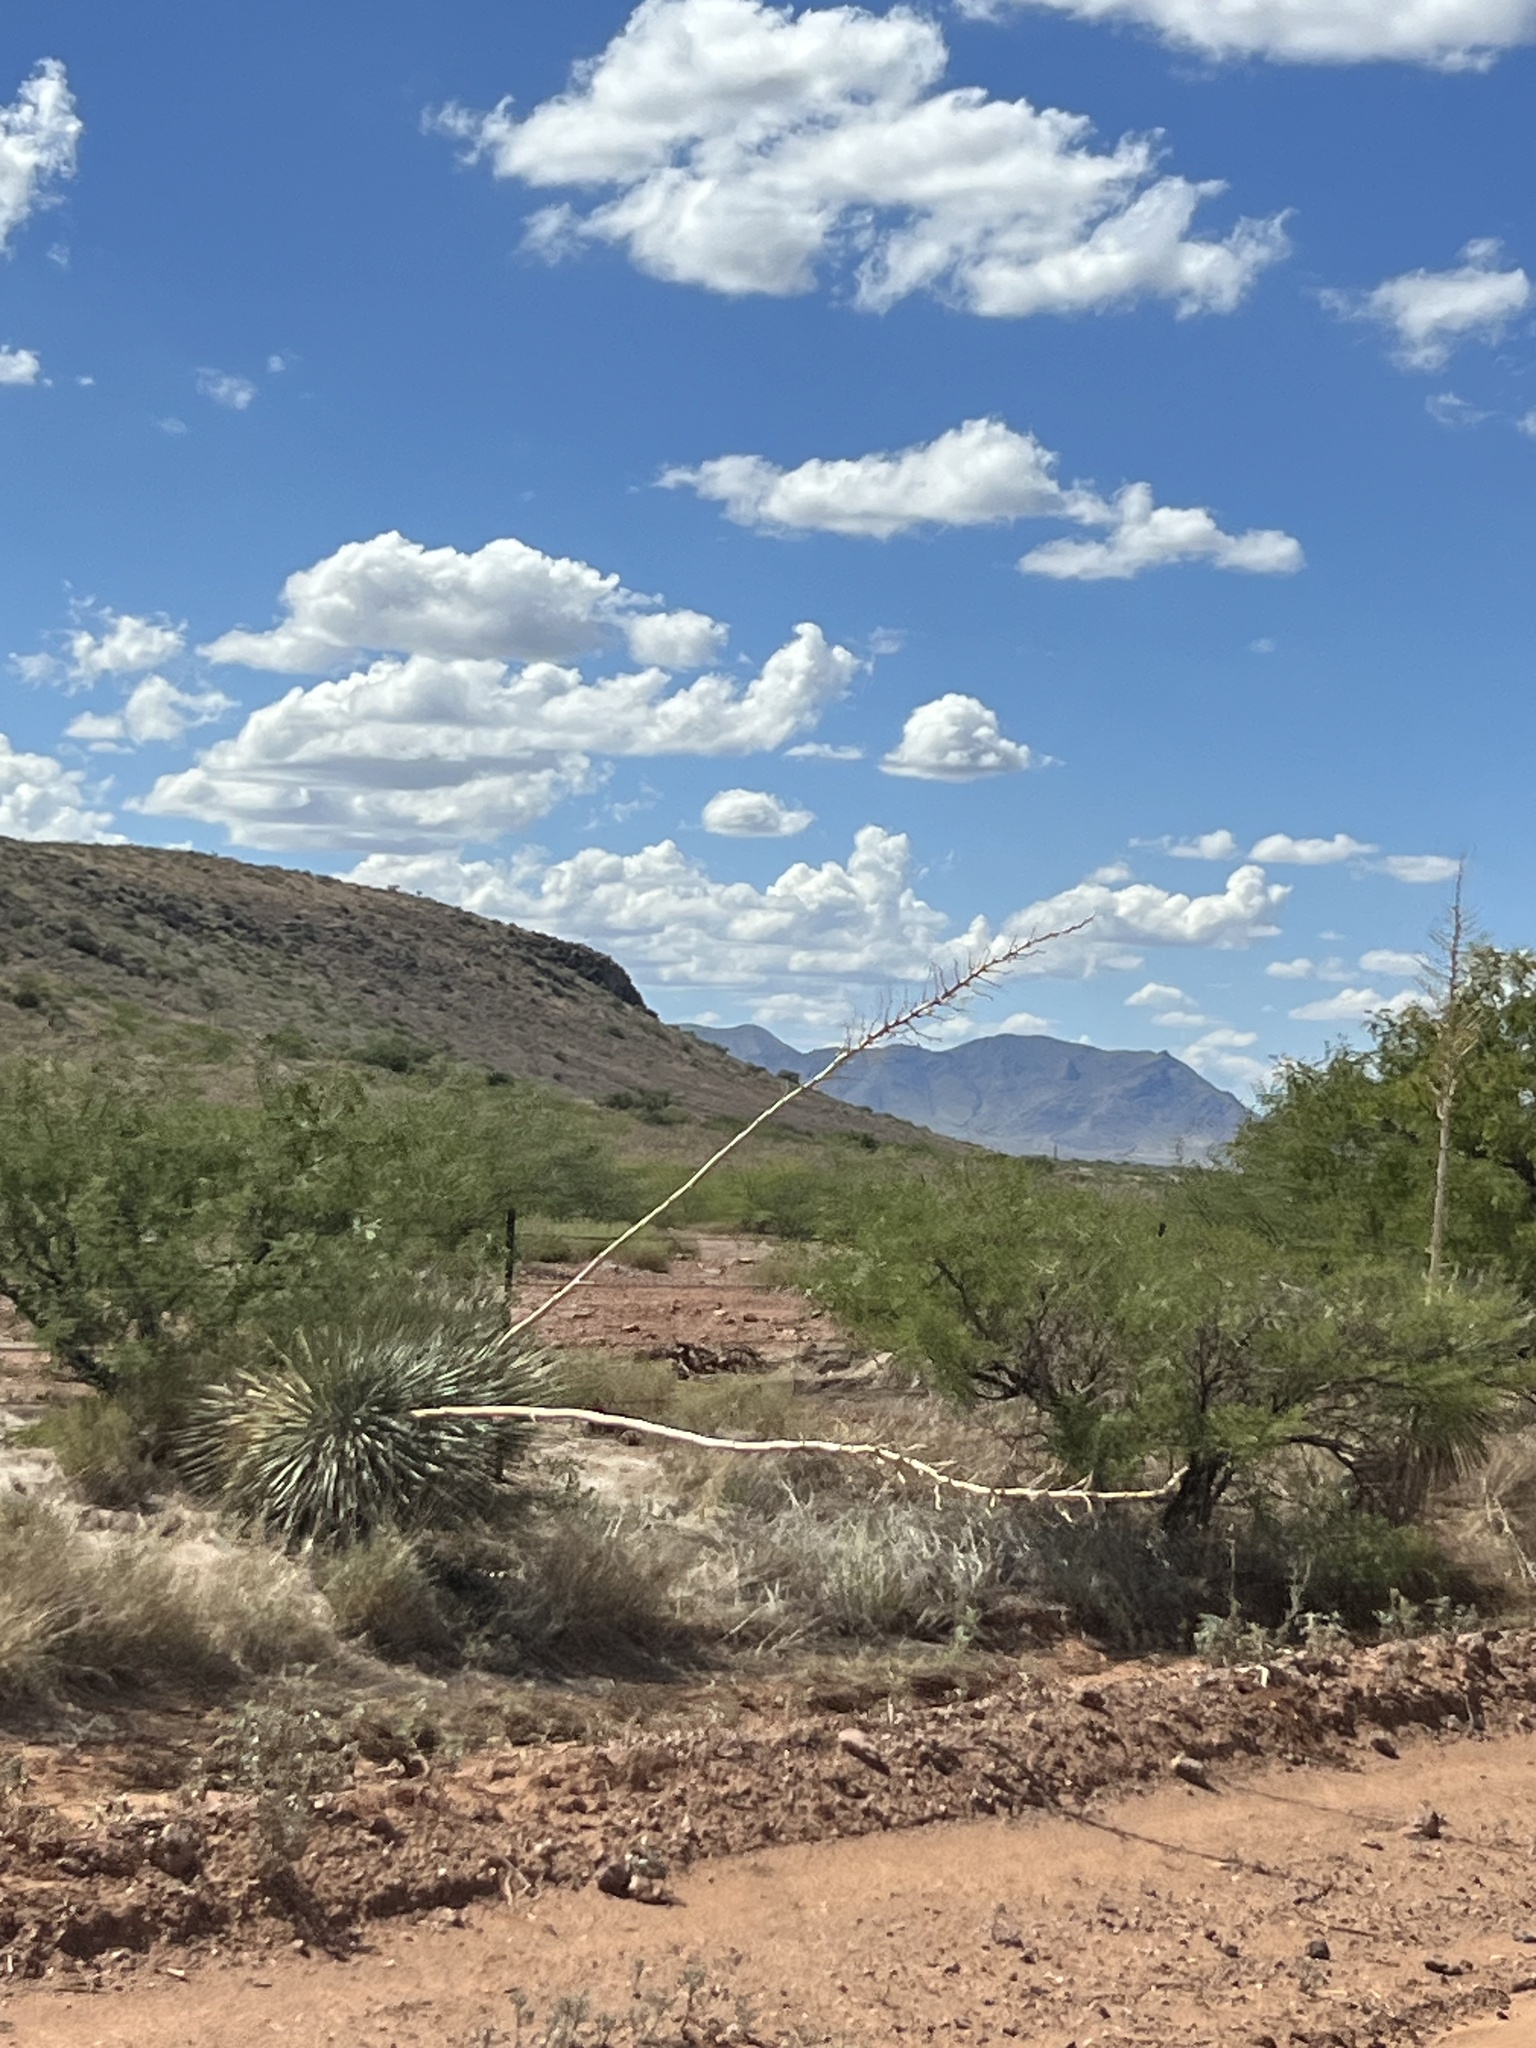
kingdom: Plantae
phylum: Tracheophyta
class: Liliopsida
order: Asparagales
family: Asparagaceae
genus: Yucca
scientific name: Yucca elata
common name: Palmella
